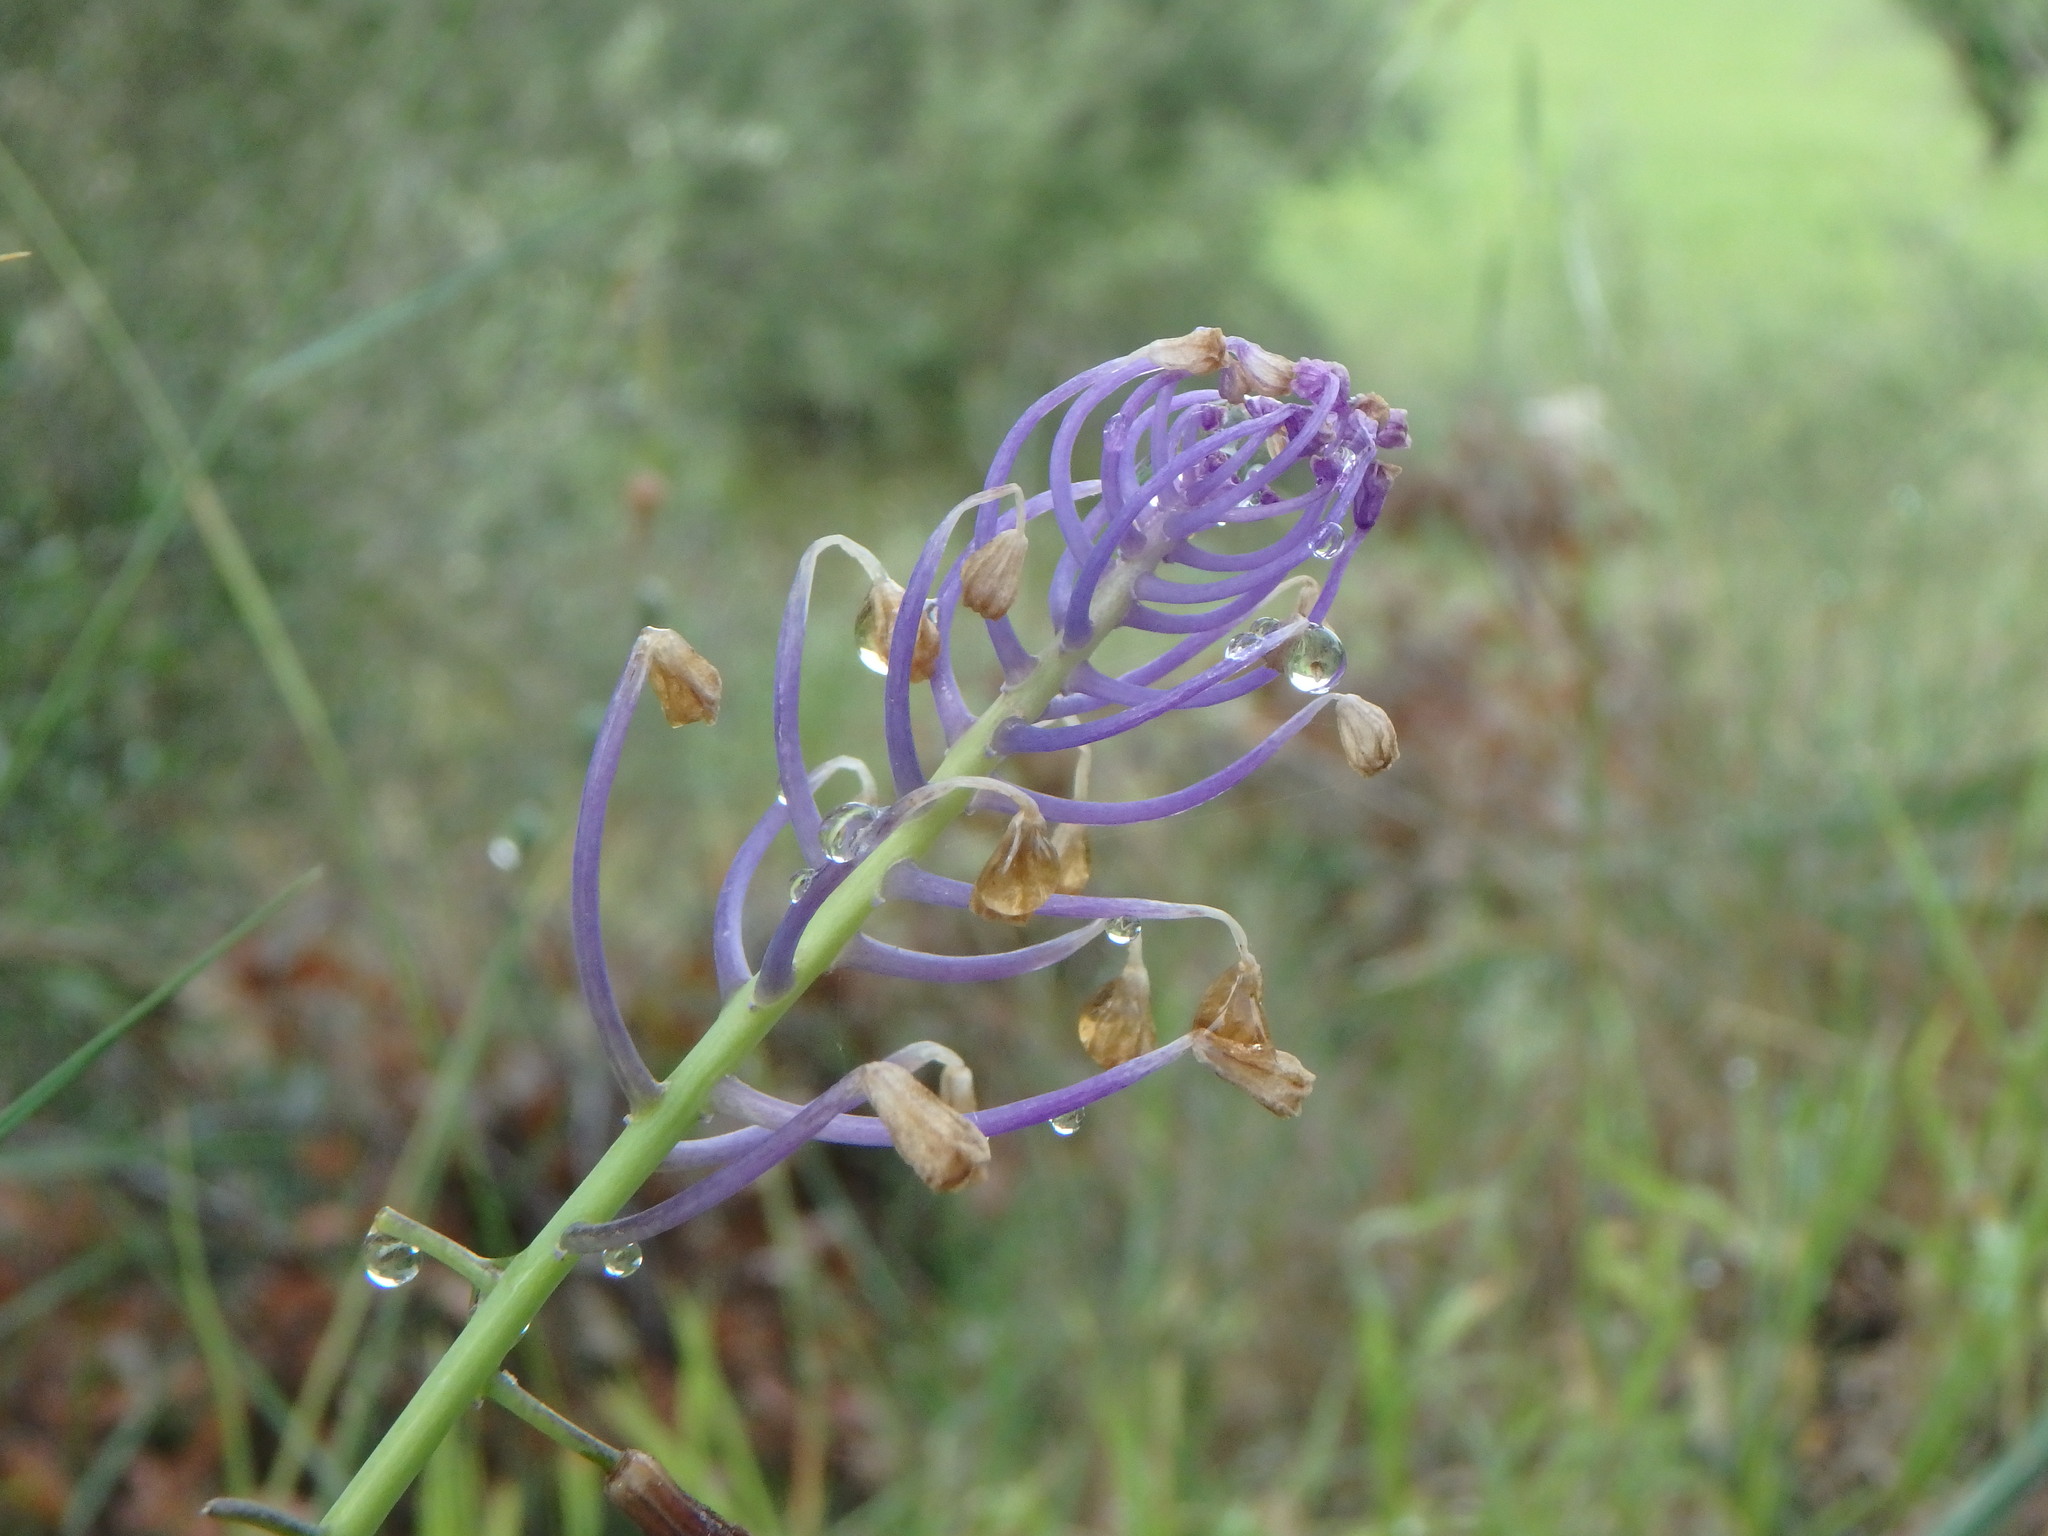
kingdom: Plantae
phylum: Tracheophyta
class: Liliopsida
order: Asparagales
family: Asparagaceae
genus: Muscari
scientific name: Muscari comosum
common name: Tassel hyacinth
